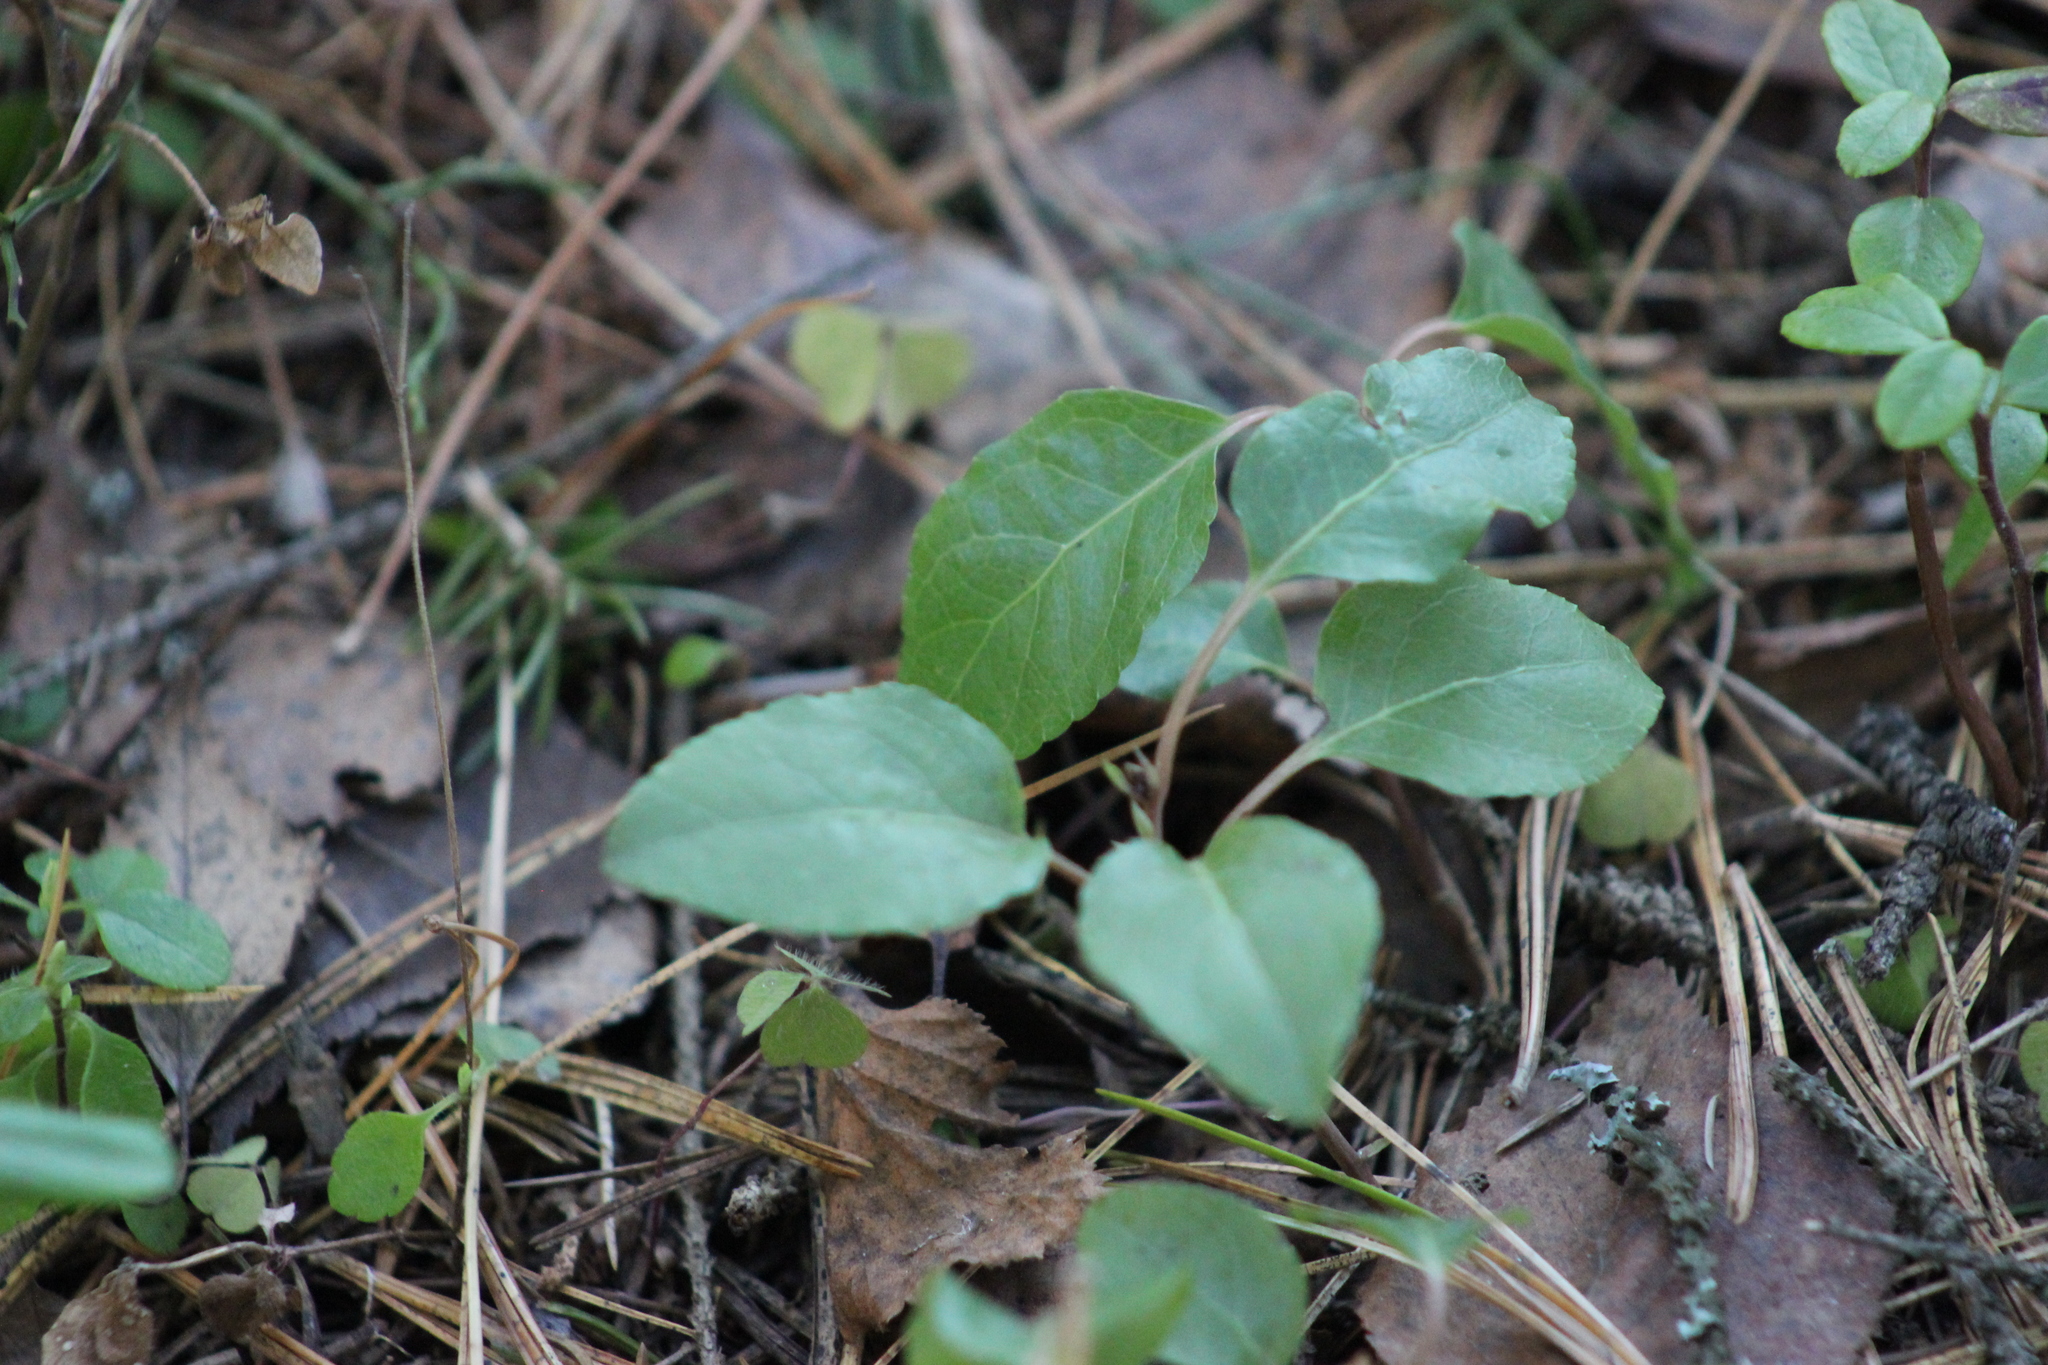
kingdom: Plantae
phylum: Tracheophyta
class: Magnoliopsida
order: Ericales
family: Ericaceae
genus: Orthilia
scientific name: Orthilia secunda
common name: One-sided orthilia
